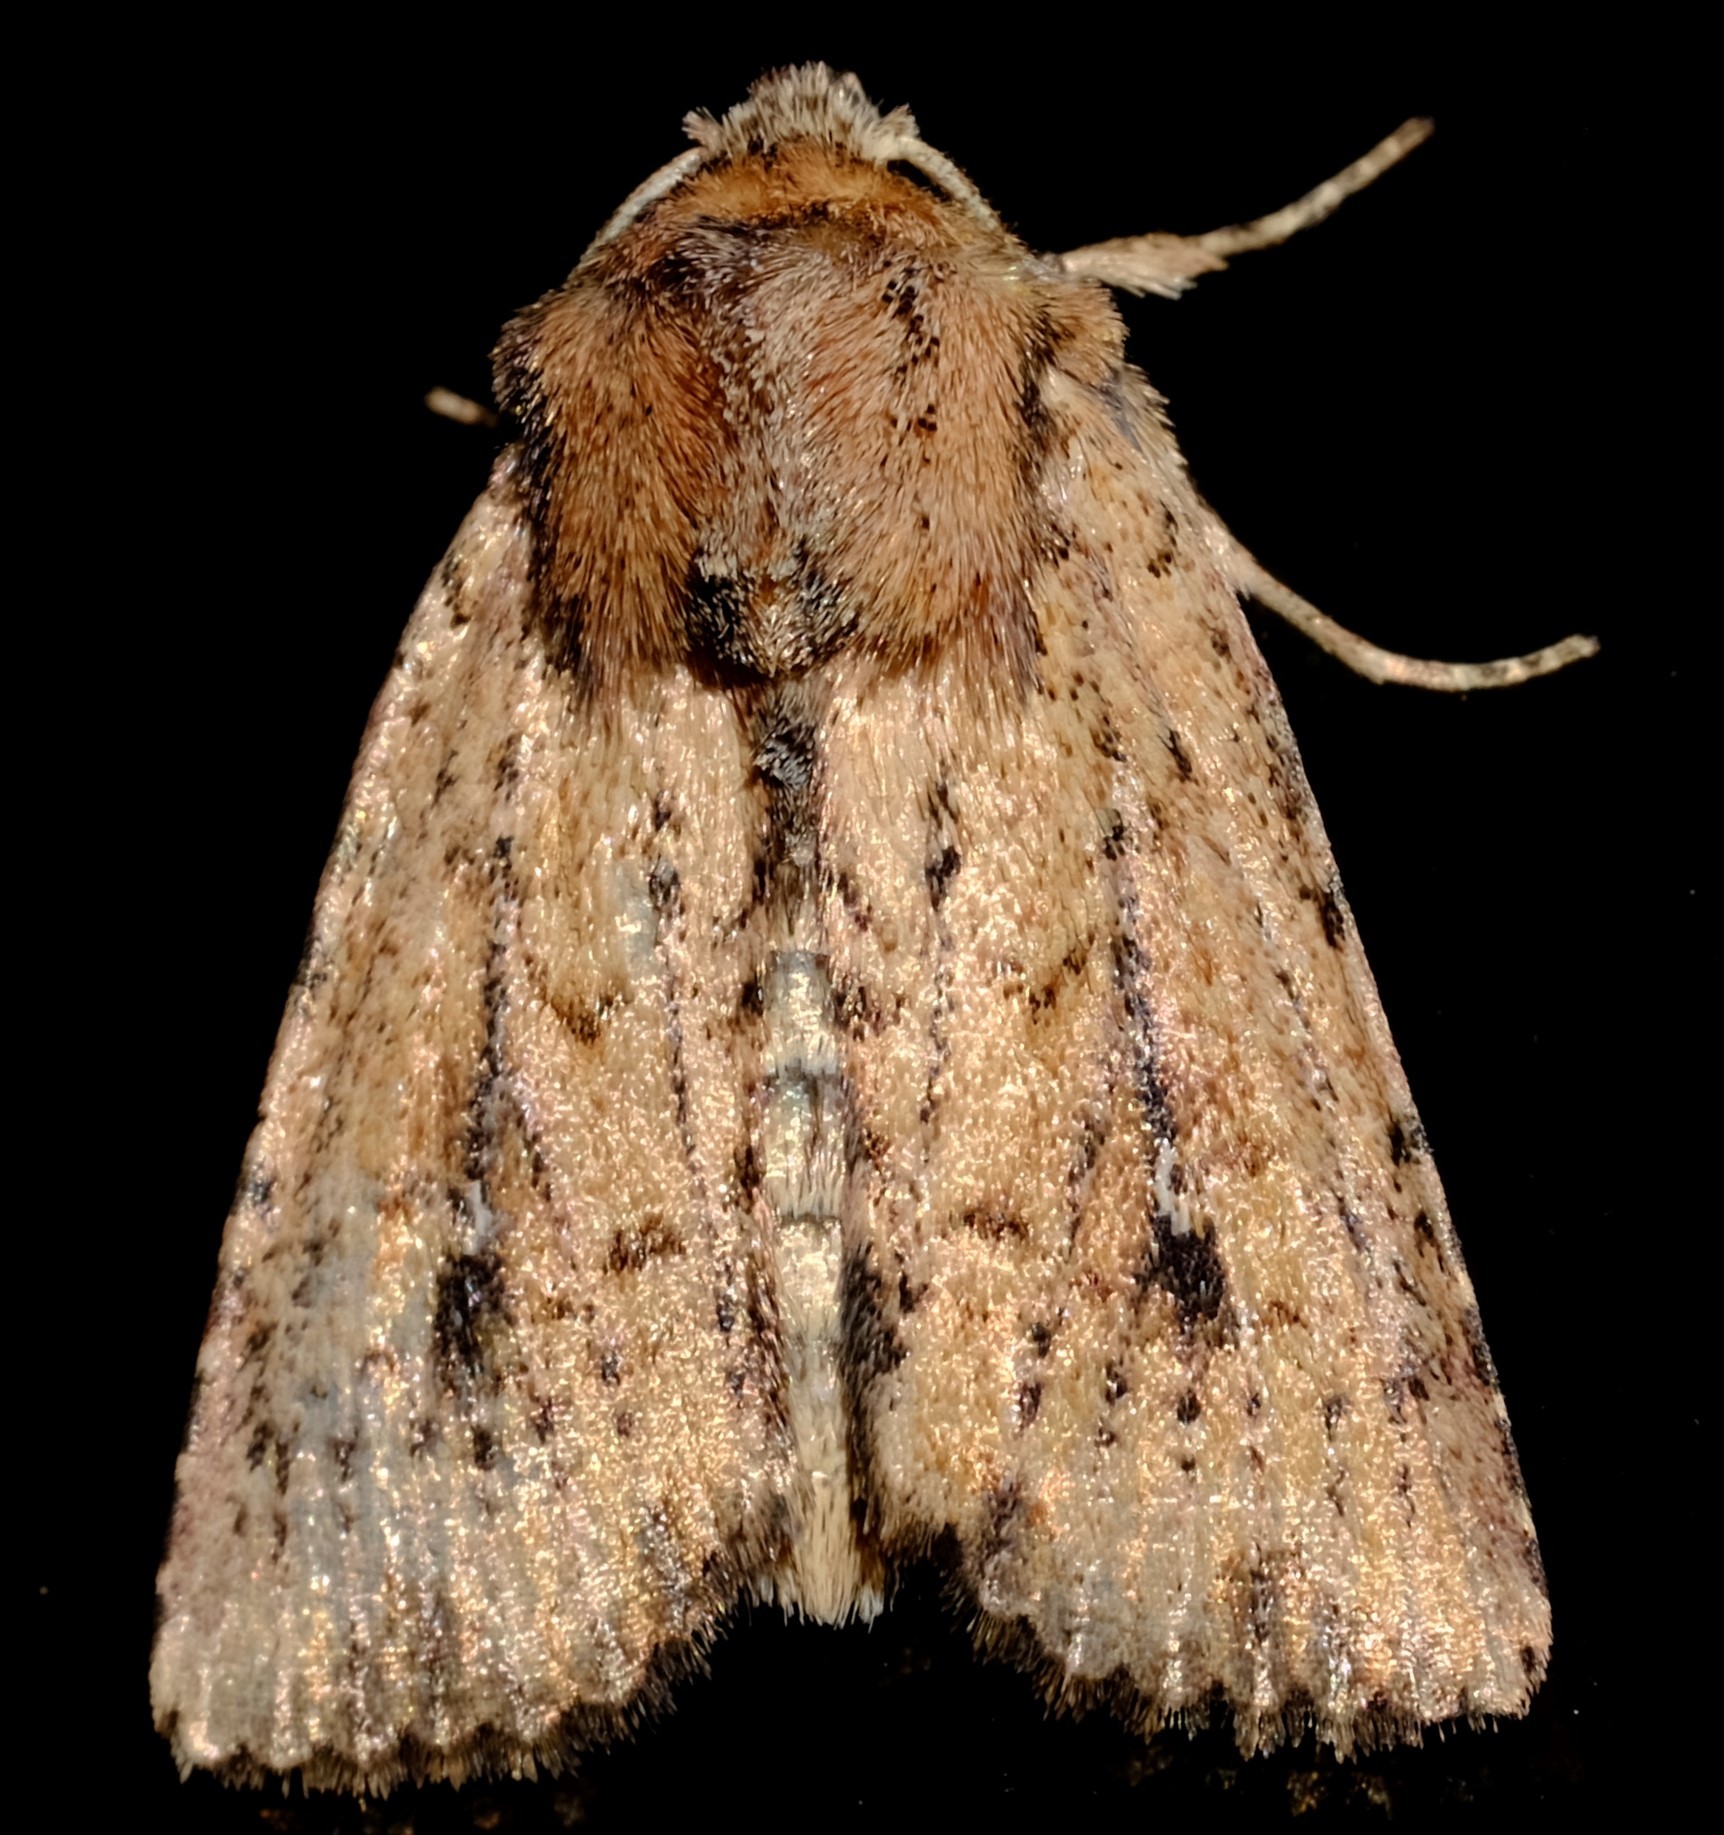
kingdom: Animalia
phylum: Arthropoda
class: Insecta
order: Lepidoptera
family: Noctuidae
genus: Leucania
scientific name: Leucania obumbrata
